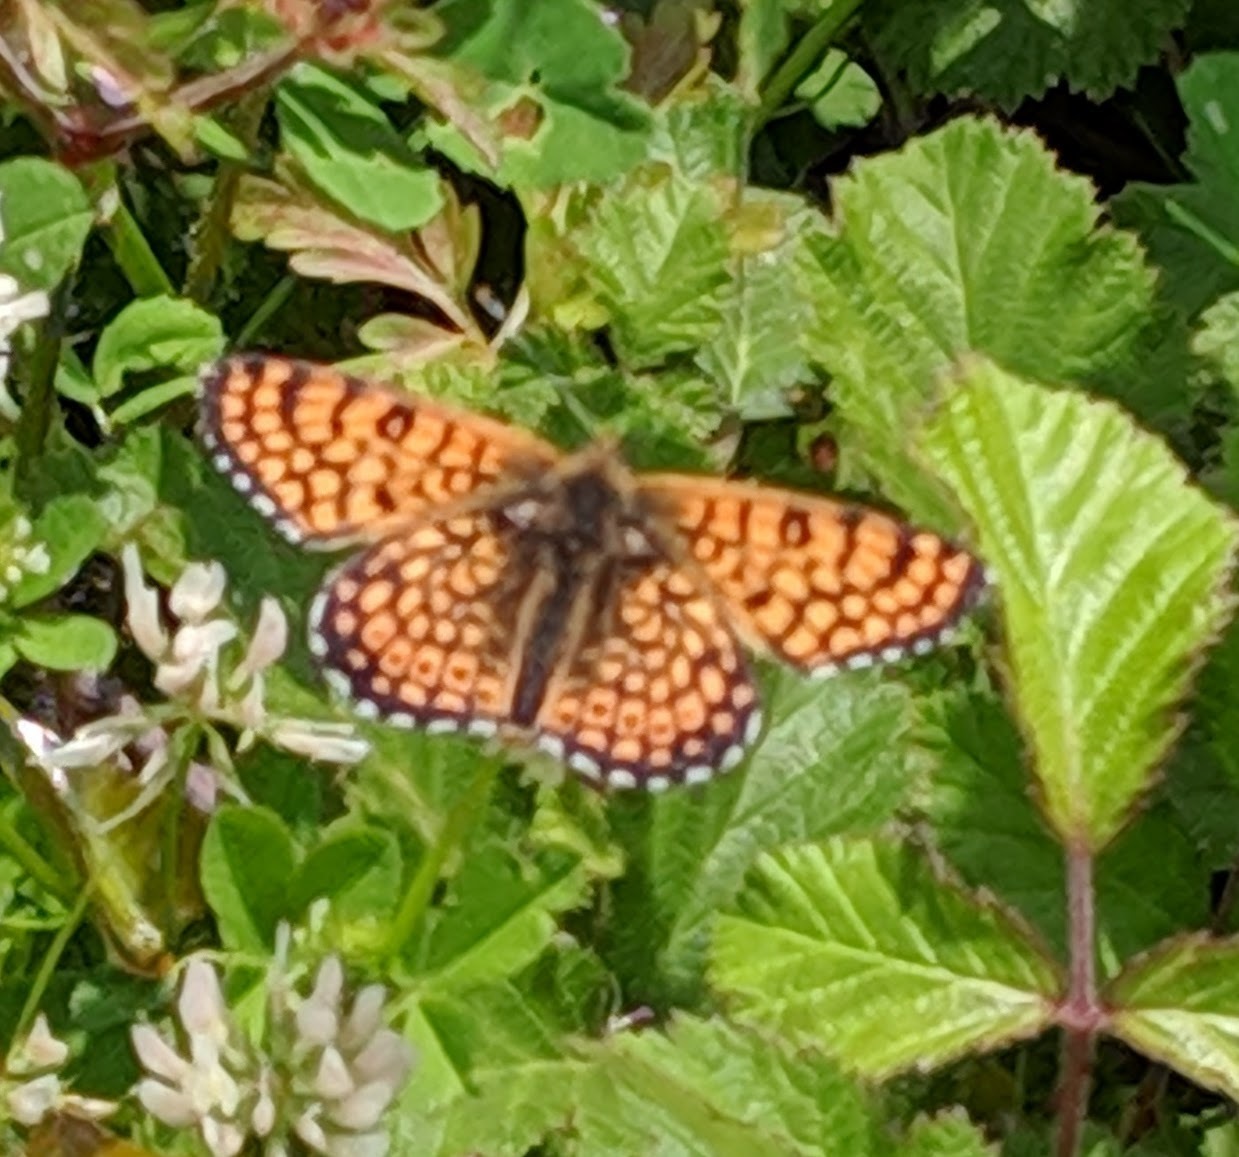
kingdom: Animalia
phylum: Arthropoda
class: Insecta
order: Lepidoptera
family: Nymphalidae
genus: Melitaea
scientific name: Melitaea cinxia
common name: Glanville fritillary
